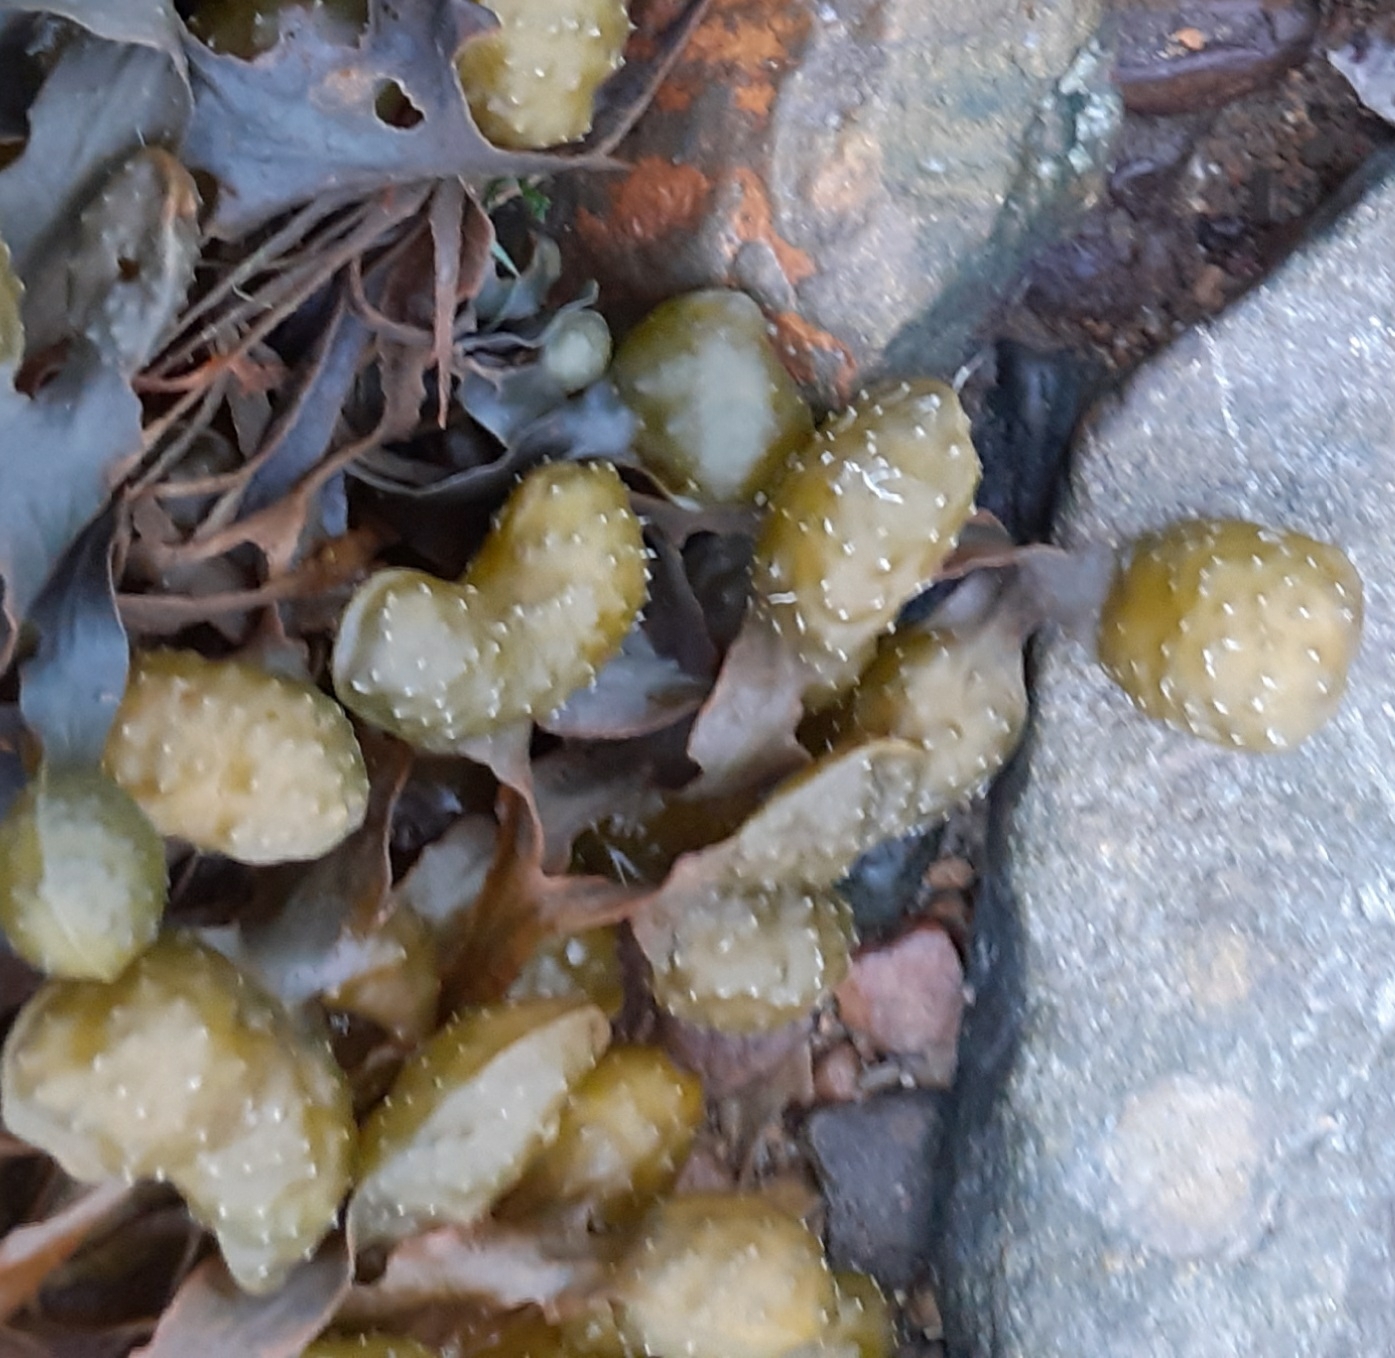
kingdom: Chromista
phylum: Ochrophyta
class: Phaeophyceae
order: Fucales
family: Fucaceae
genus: Fucus
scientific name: Fucus spiralis
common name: Spiral wrack
